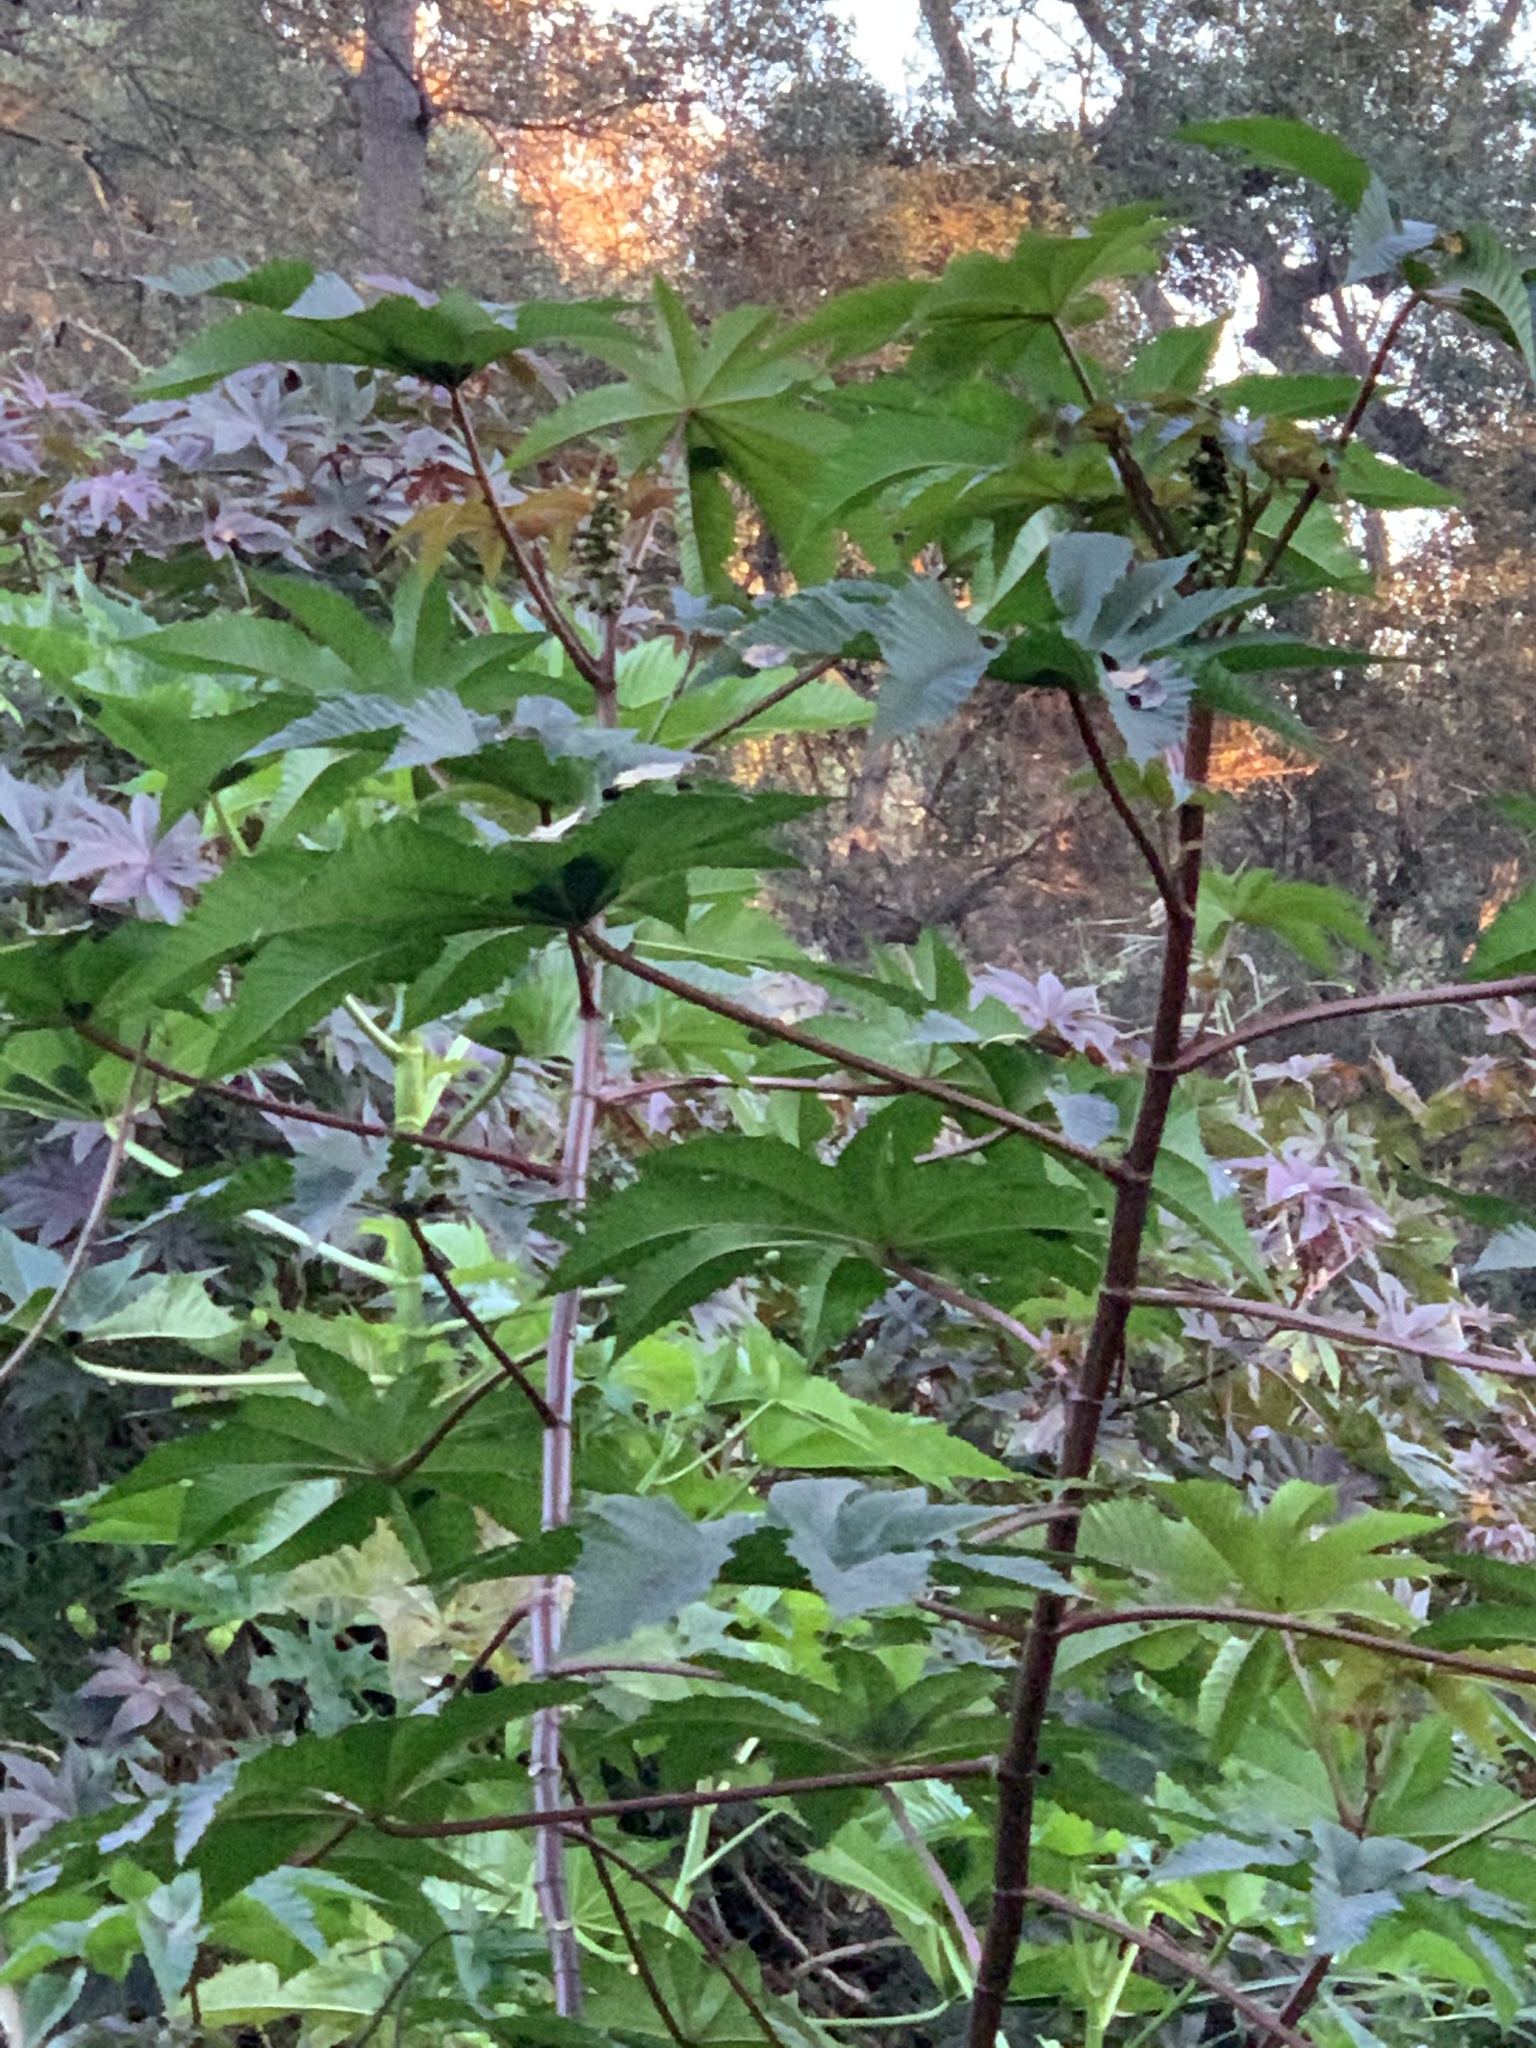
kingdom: Plantae
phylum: Tracheophyta
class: Magnoliopsida
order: Malpighiales
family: Euphorbiaceae
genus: Ricinus
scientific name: Ricinus communis
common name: Castor-oil-plant
